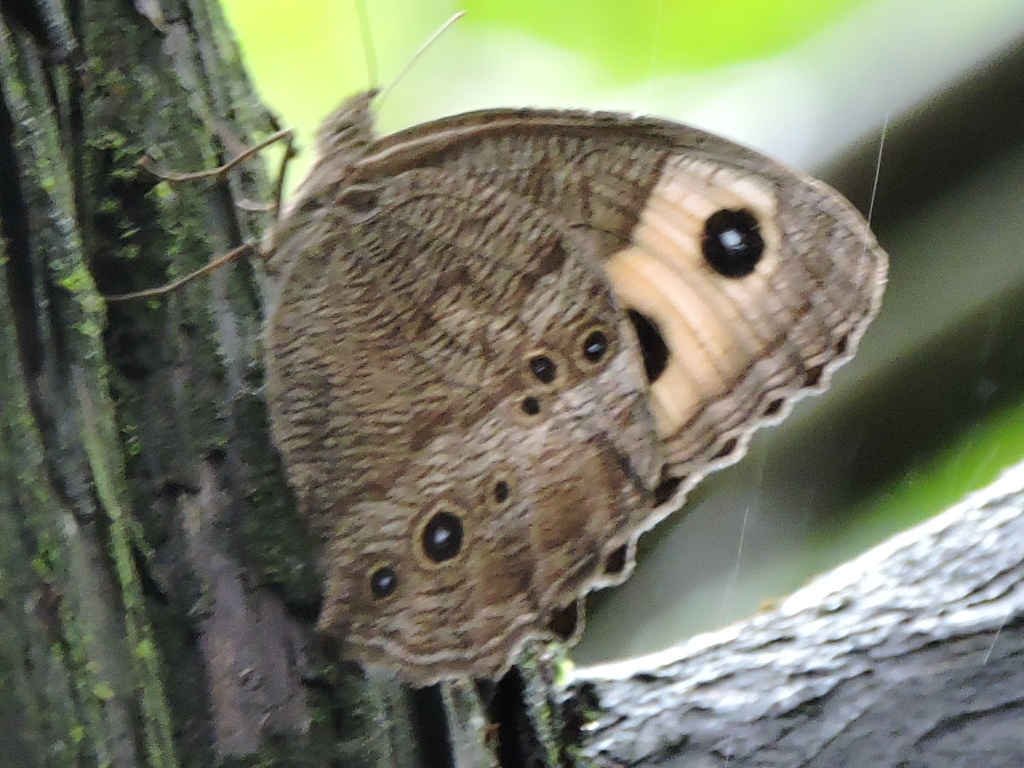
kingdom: Animalia
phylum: Arthropoda
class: Insecta
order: Lepidoptera
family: Nymphalidae
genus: Cercyonis
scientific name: Cercyonis pegala
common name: Common wood-nymph
